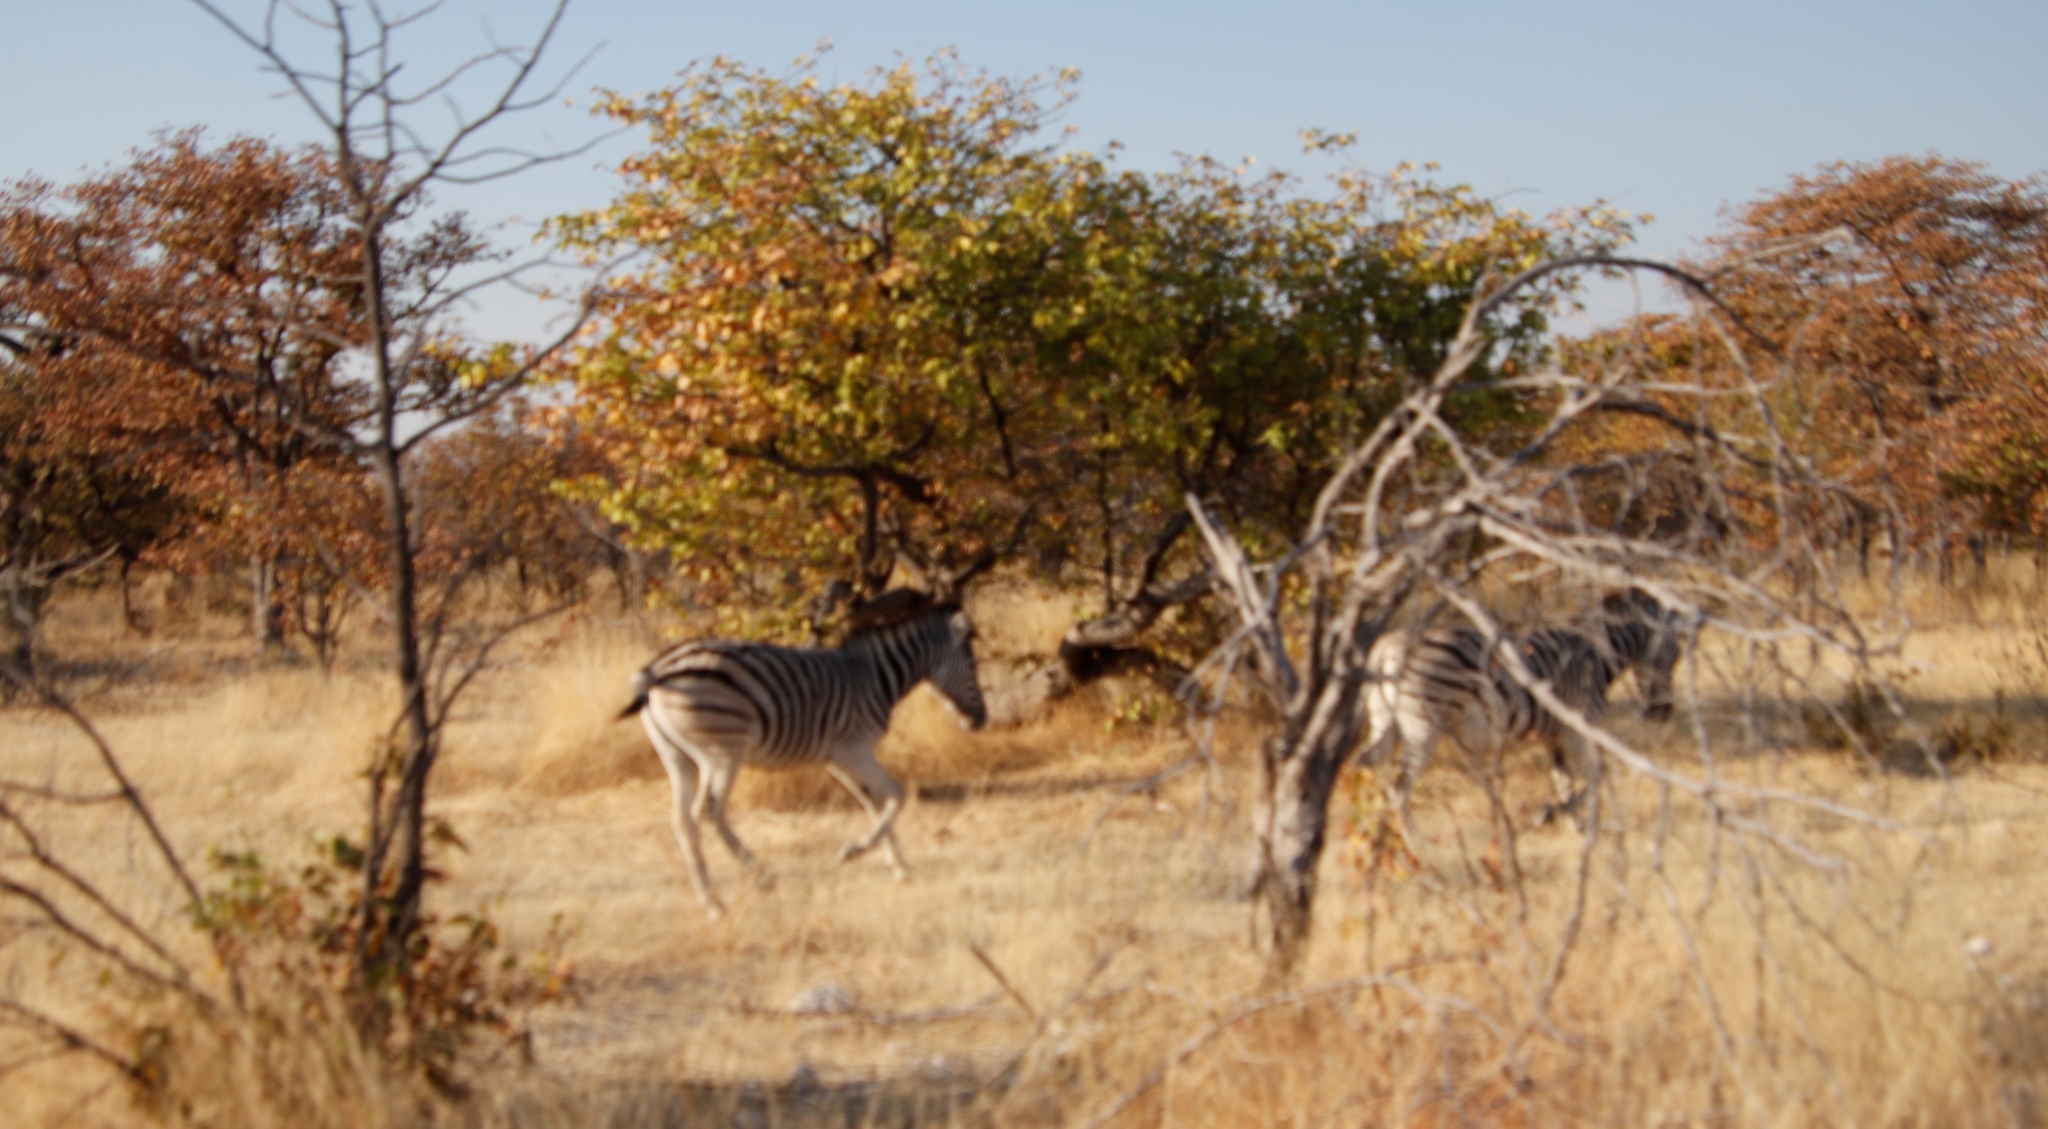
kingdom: Plantae
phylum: Tracheophyta
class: Magnoliopsida
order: Fabales
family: Fabaceae
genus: Colophospermum
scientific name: Colophospermum mopane
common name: Mopane
